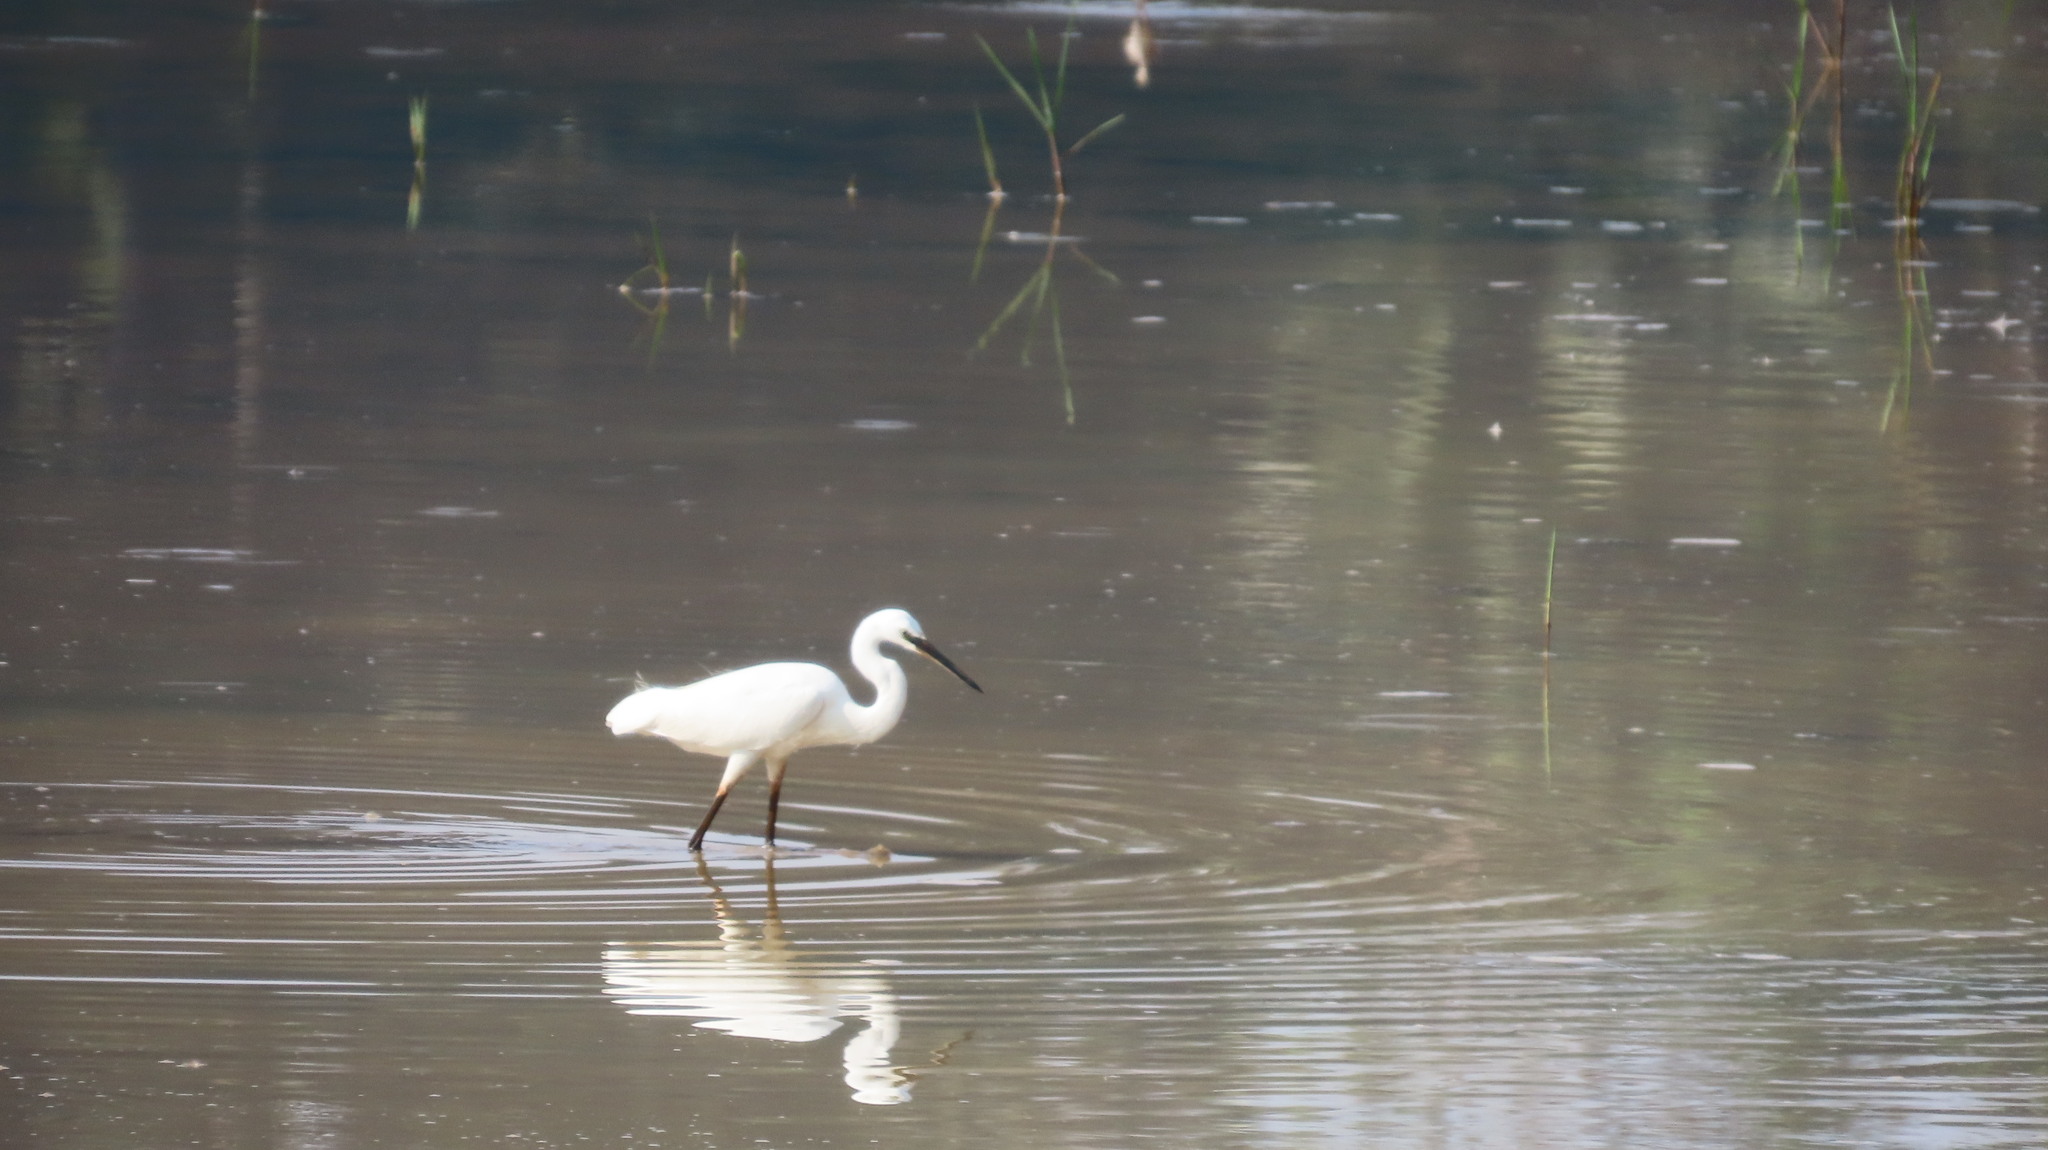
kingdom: Animalia
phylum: Chordata
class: Aves
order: Pelecaniformes
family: Ardeidae
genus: Egretta
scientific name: Egretta garzetta
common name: Little egret
